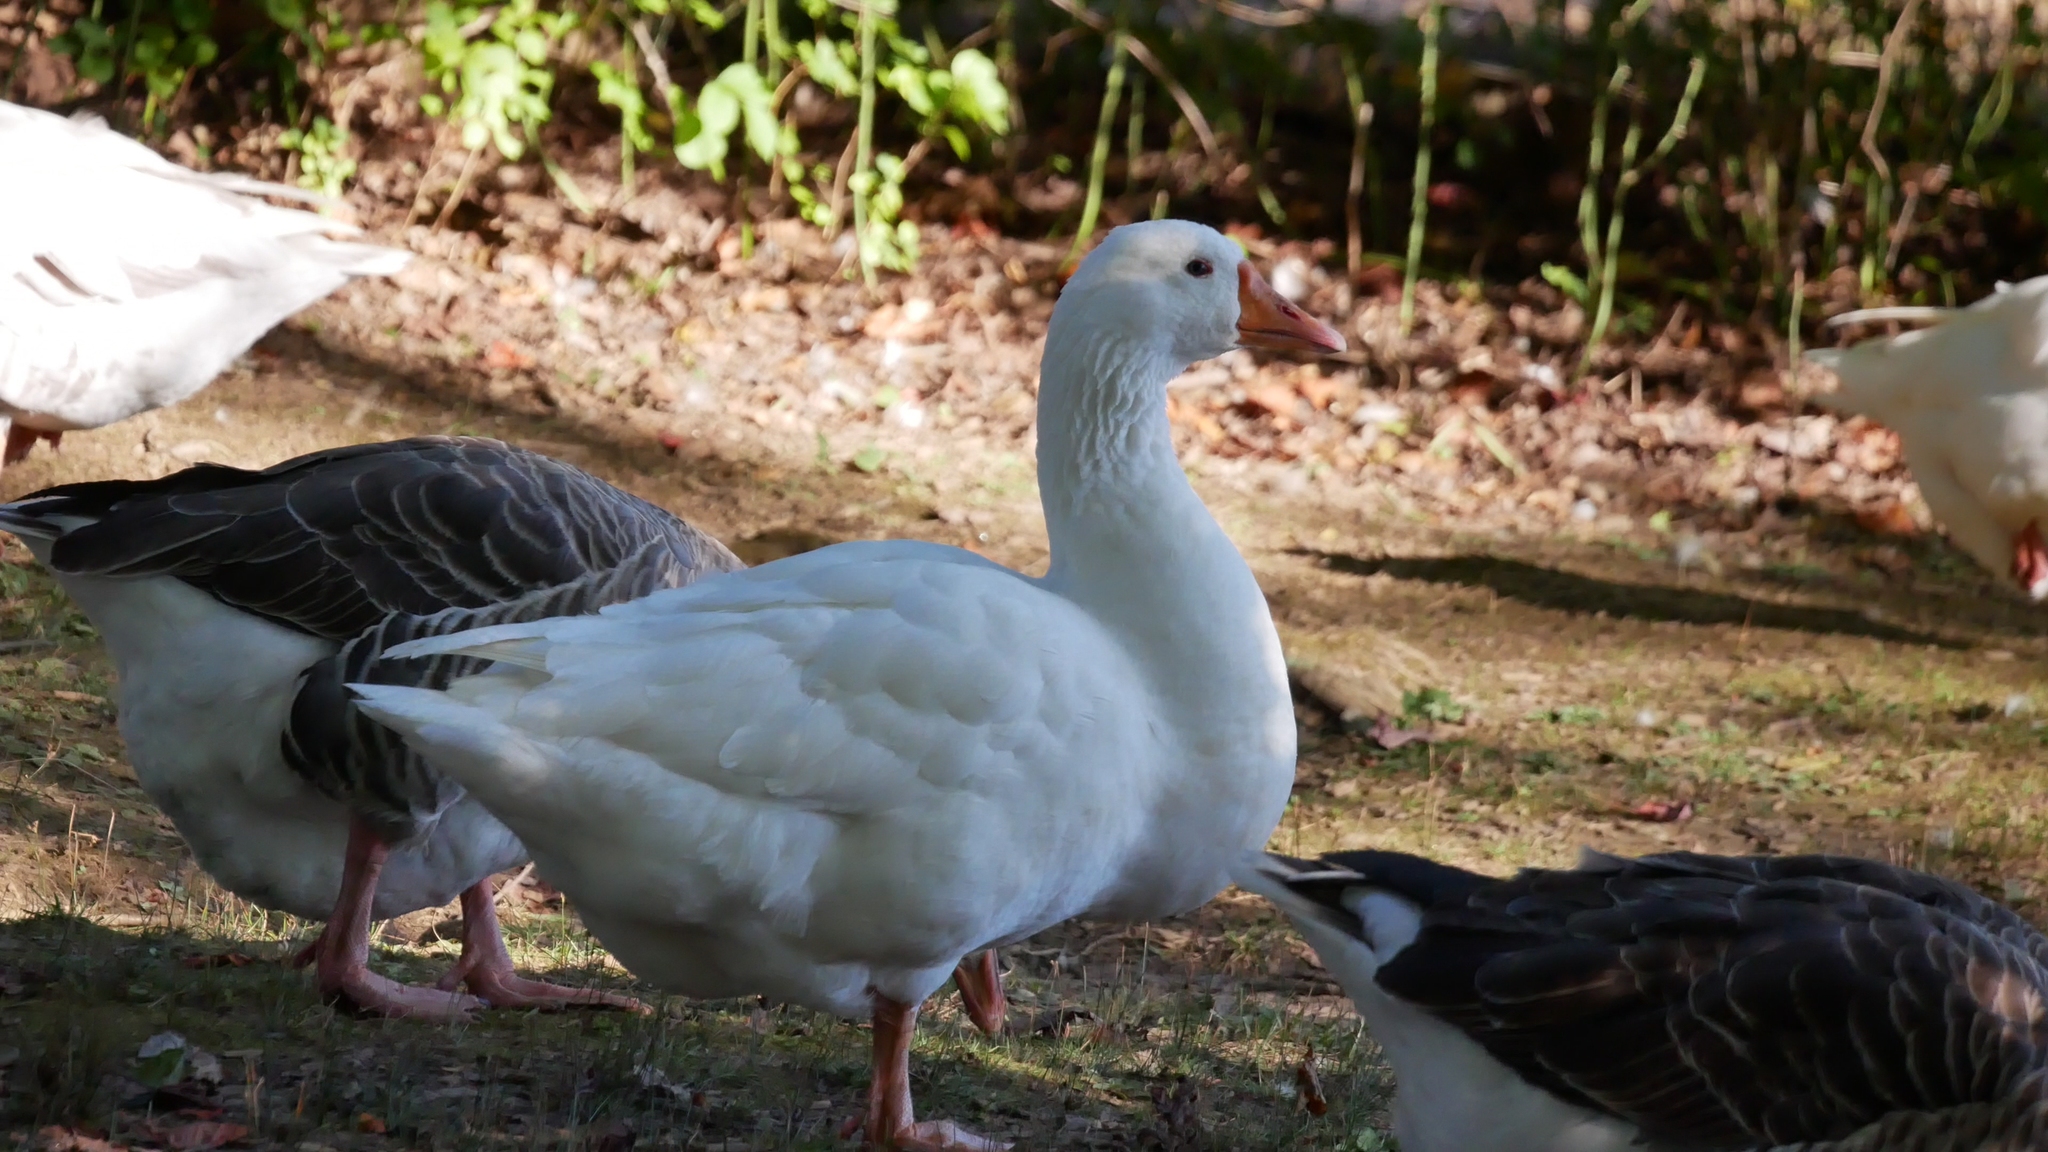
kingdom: Animalia
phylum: Chordata
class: Aves
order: Anseriformes
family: Anatidae
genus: Anser
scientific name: Anser anser
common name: Greylag goose
